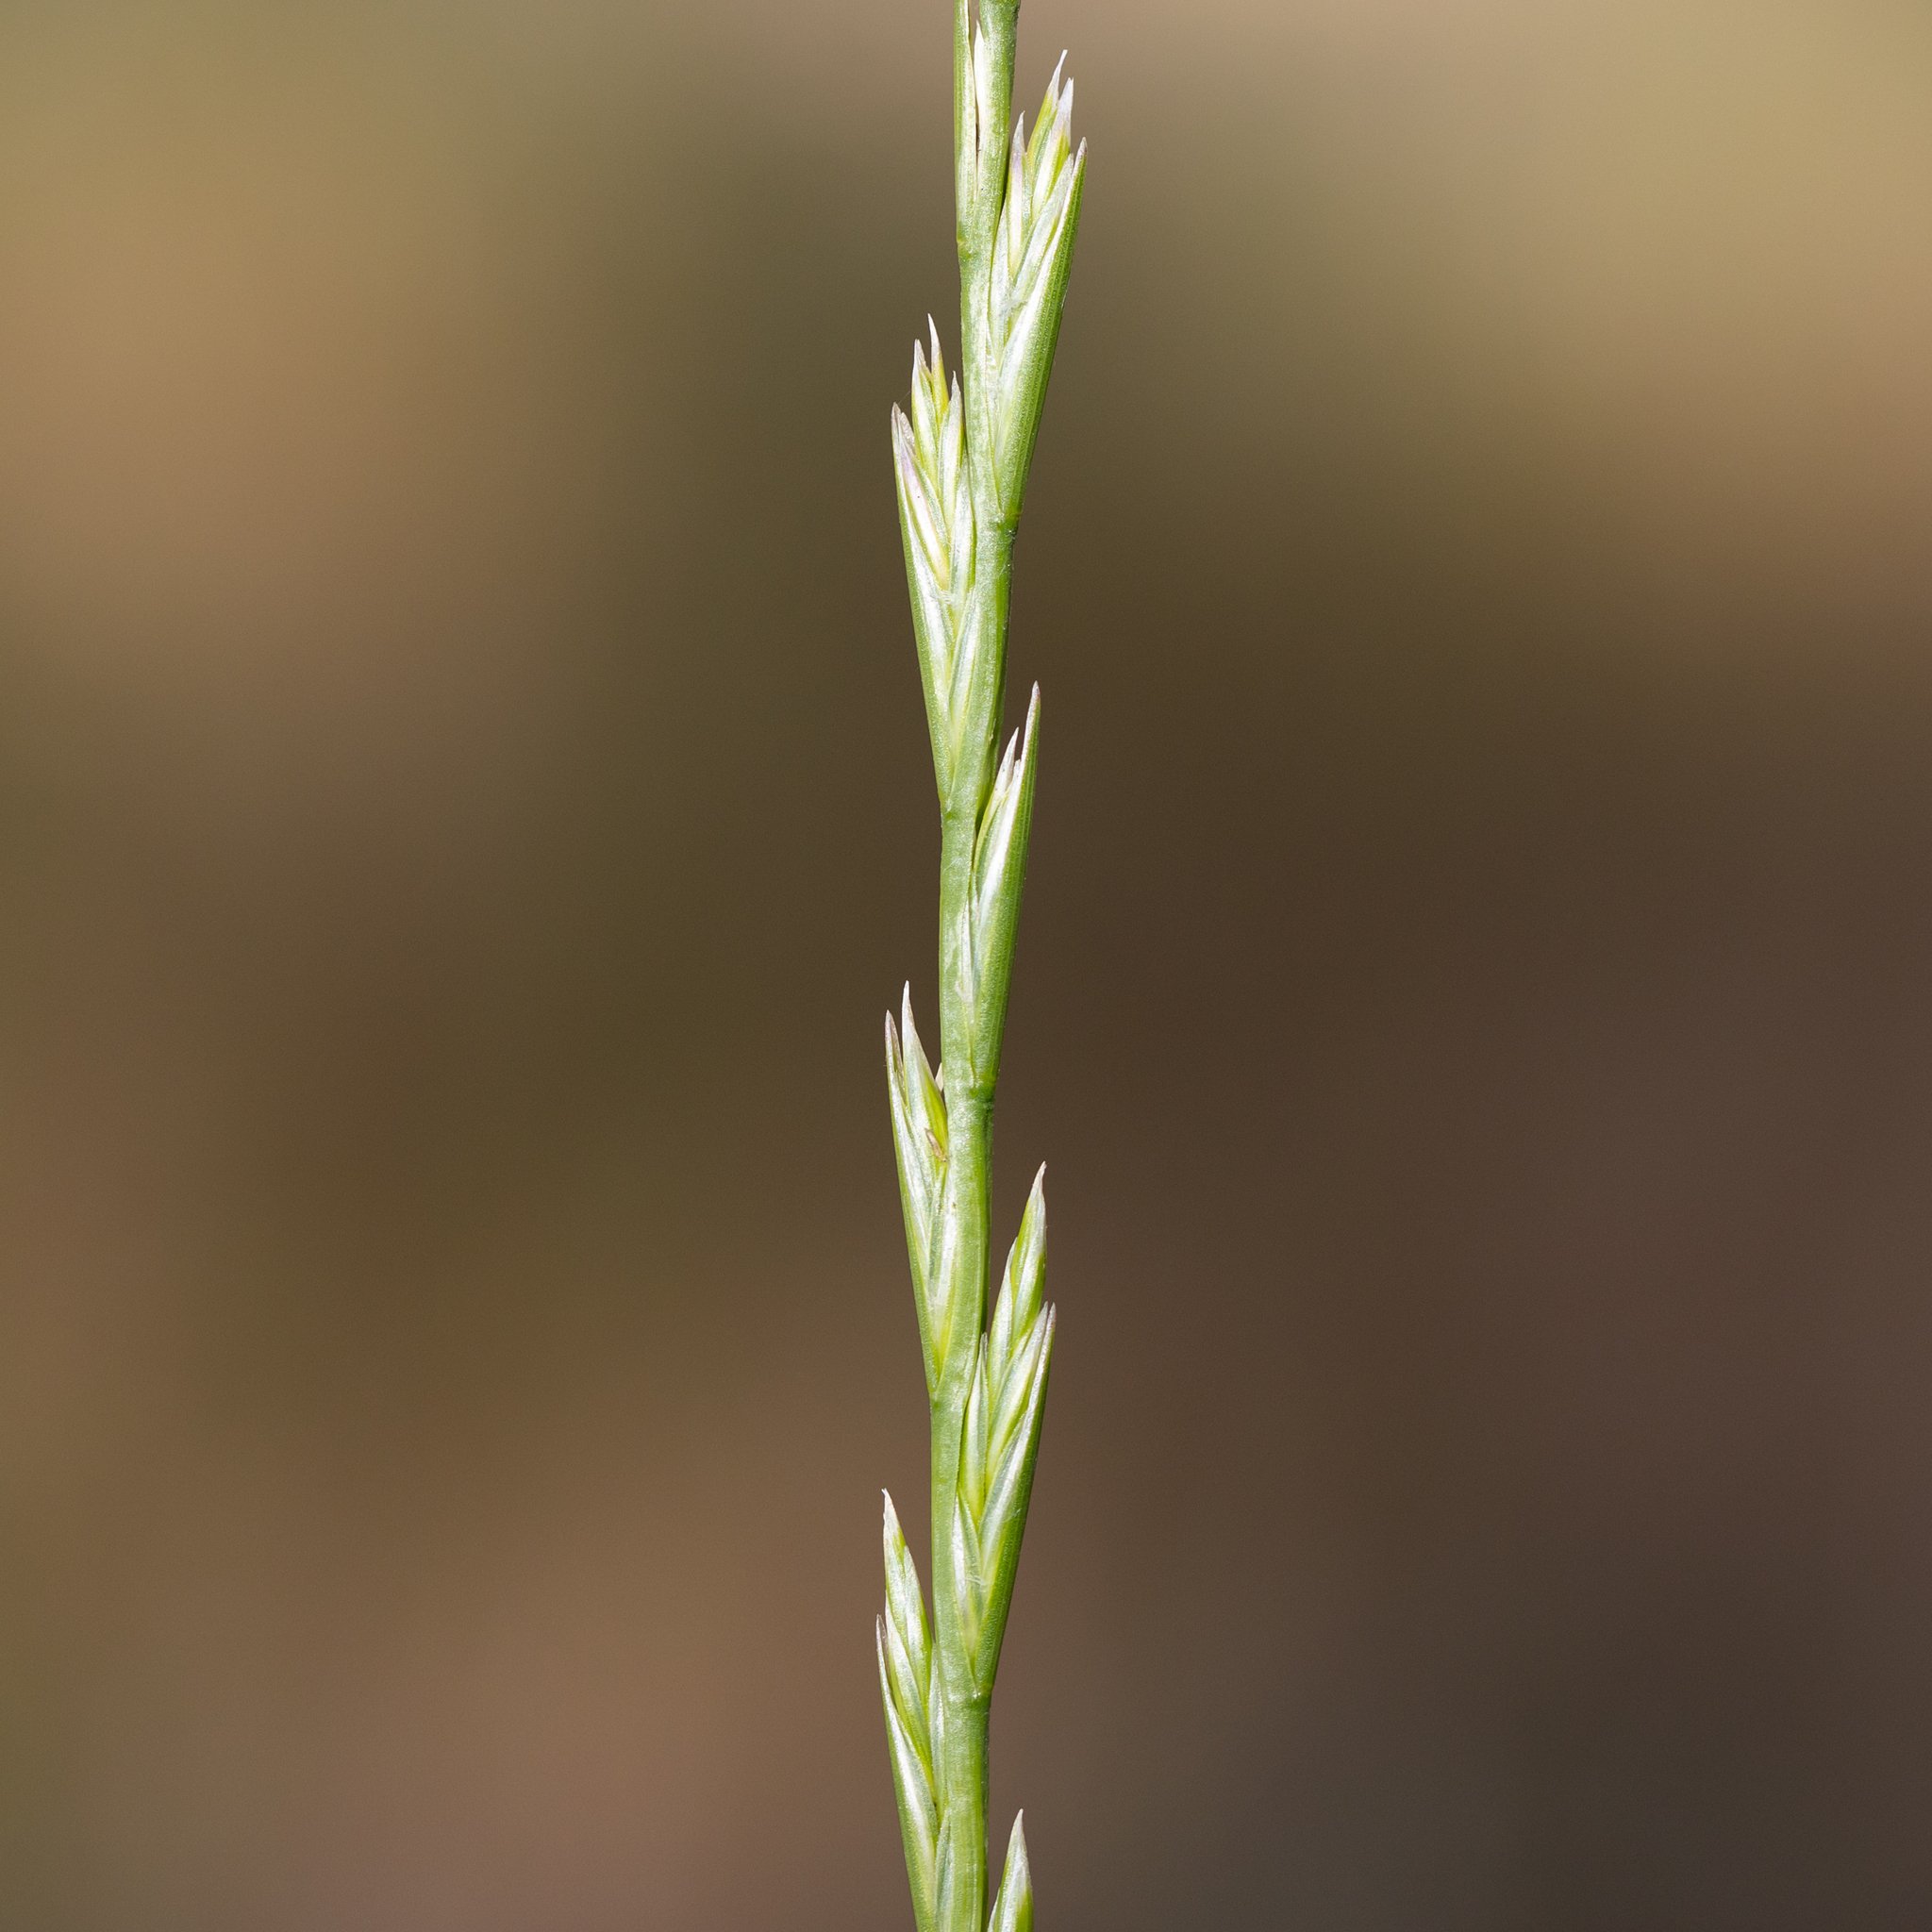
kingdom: Plantae
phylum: Tracheophyta
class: Liliopsida
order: Poales
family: Poaceae
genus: Lolium
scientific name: Lolium rigidum
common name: Wimmera ryegrass
